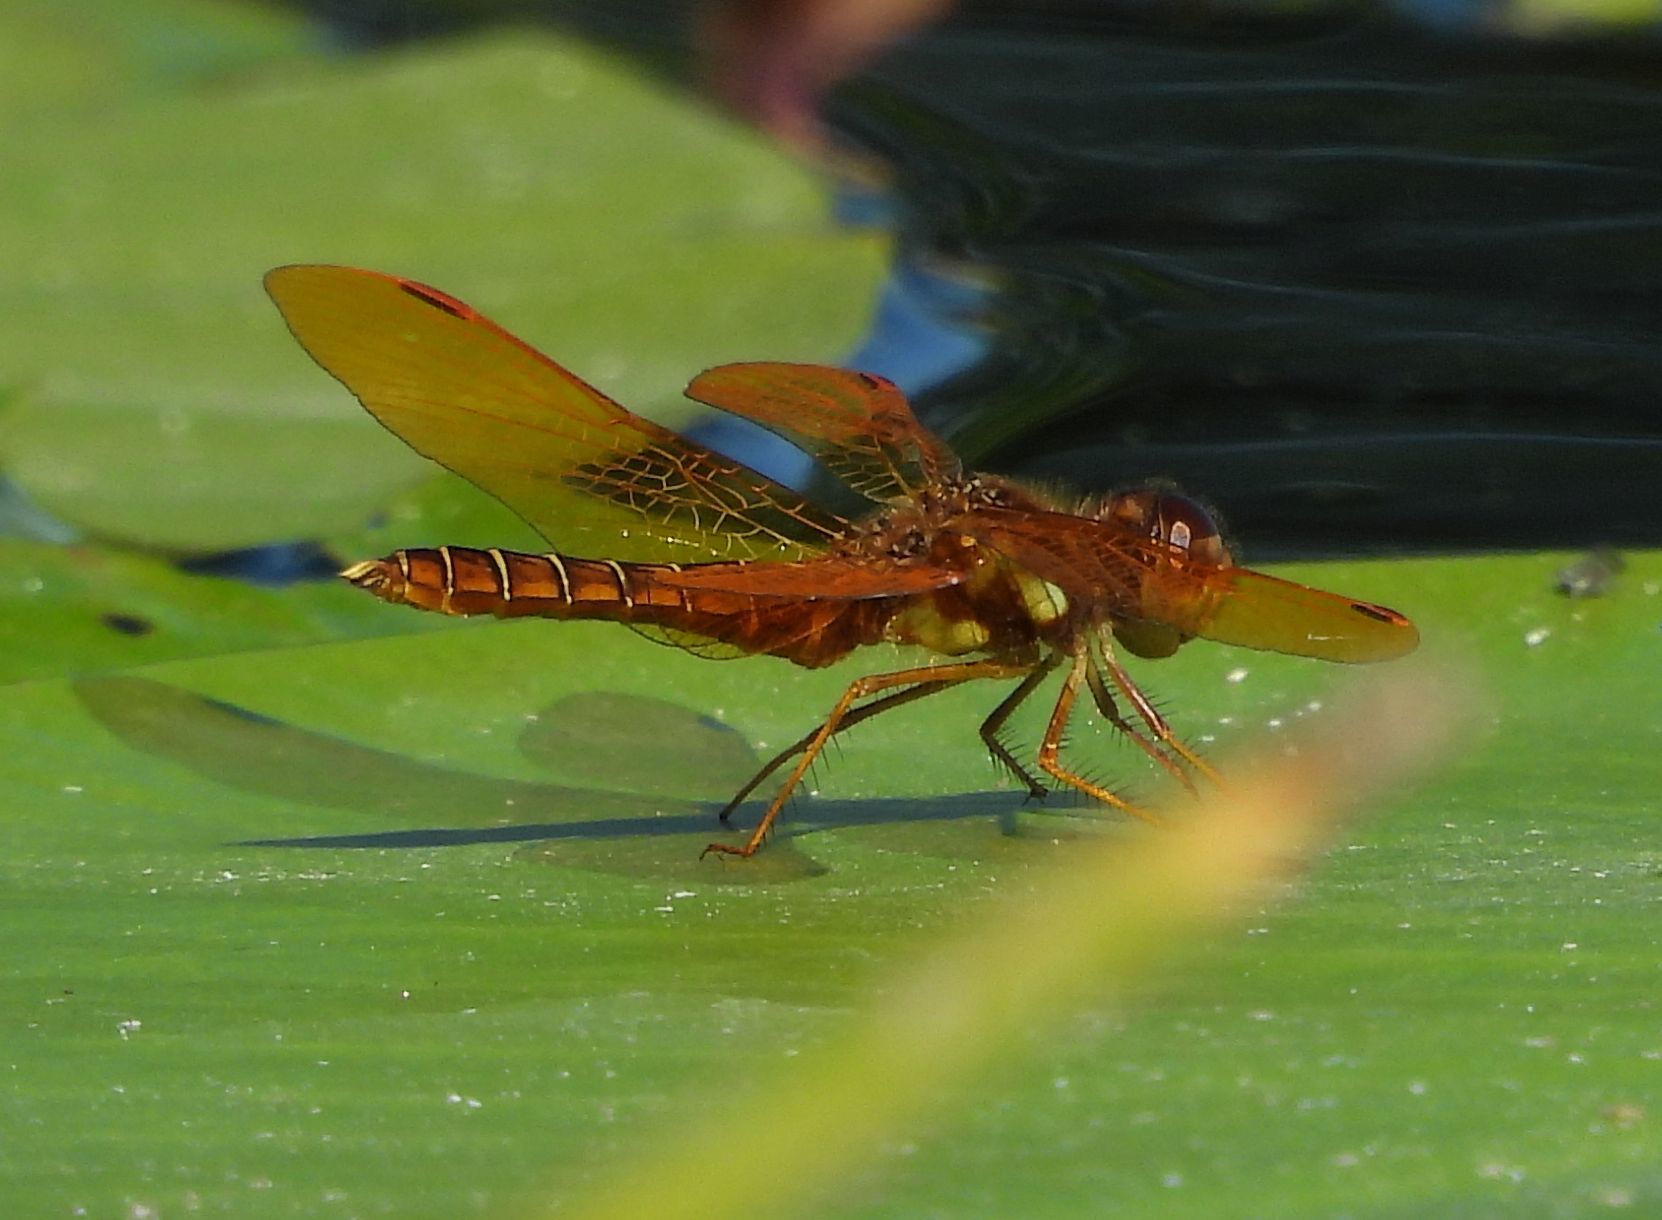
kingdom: Animalia
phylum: Arthropoda
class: Insecta
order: Odonata
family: Libellulidae
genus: Perithemis
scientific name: Perithemis tenera
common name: Eastern amberwing
